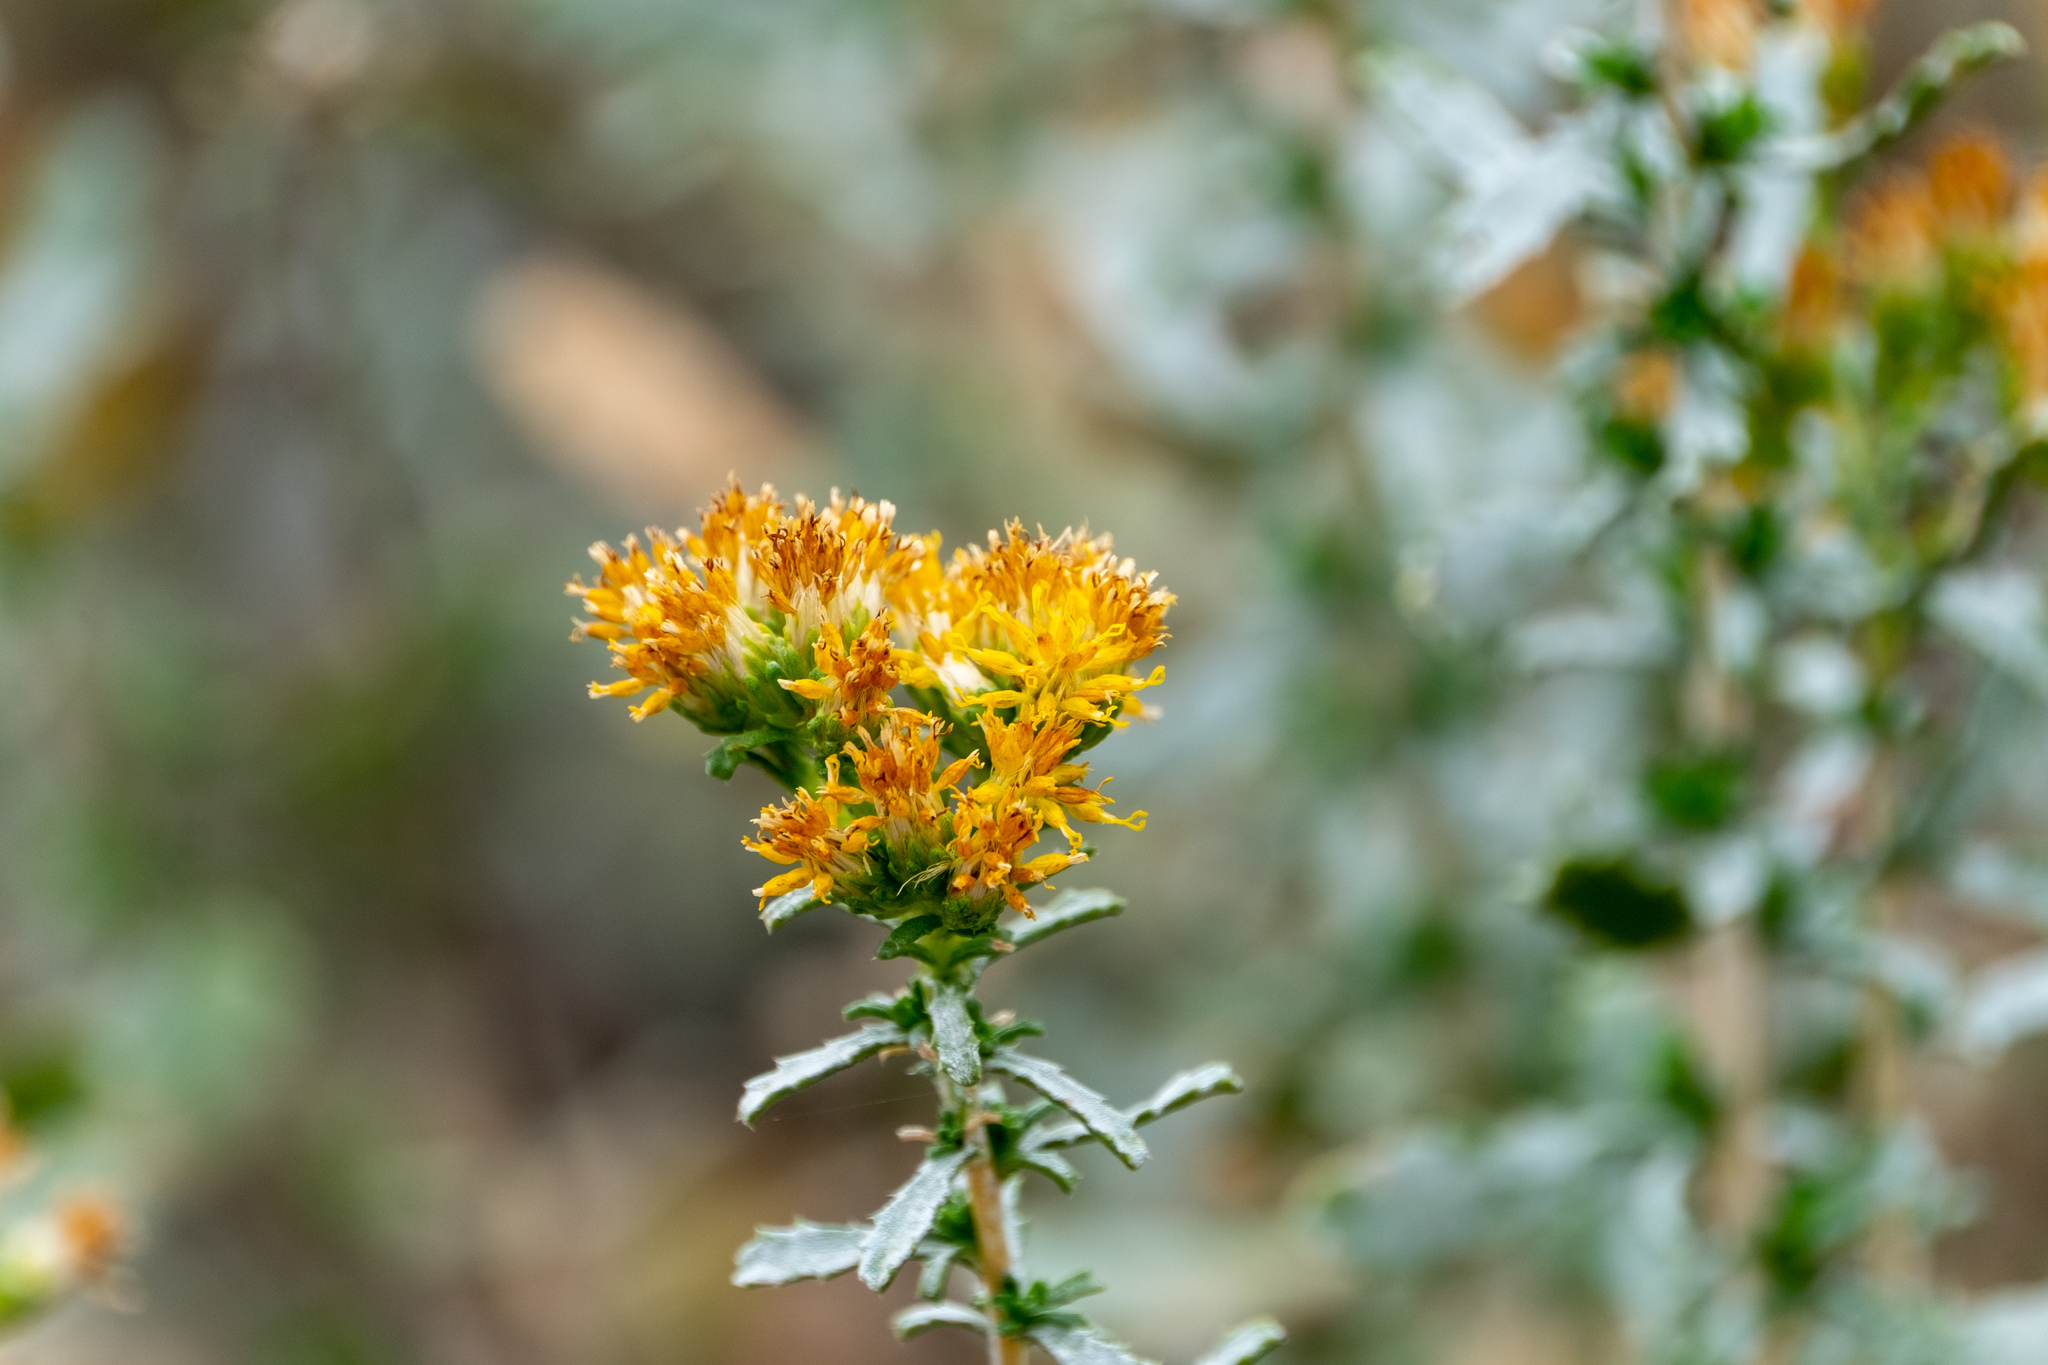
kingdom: Plantae
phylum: Tracheophyta
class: Magnoliopsida
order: Asterales
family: Asteraceae
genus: Isocoma
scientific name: Isocoma acradenia
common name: Alkali jimmyweed
